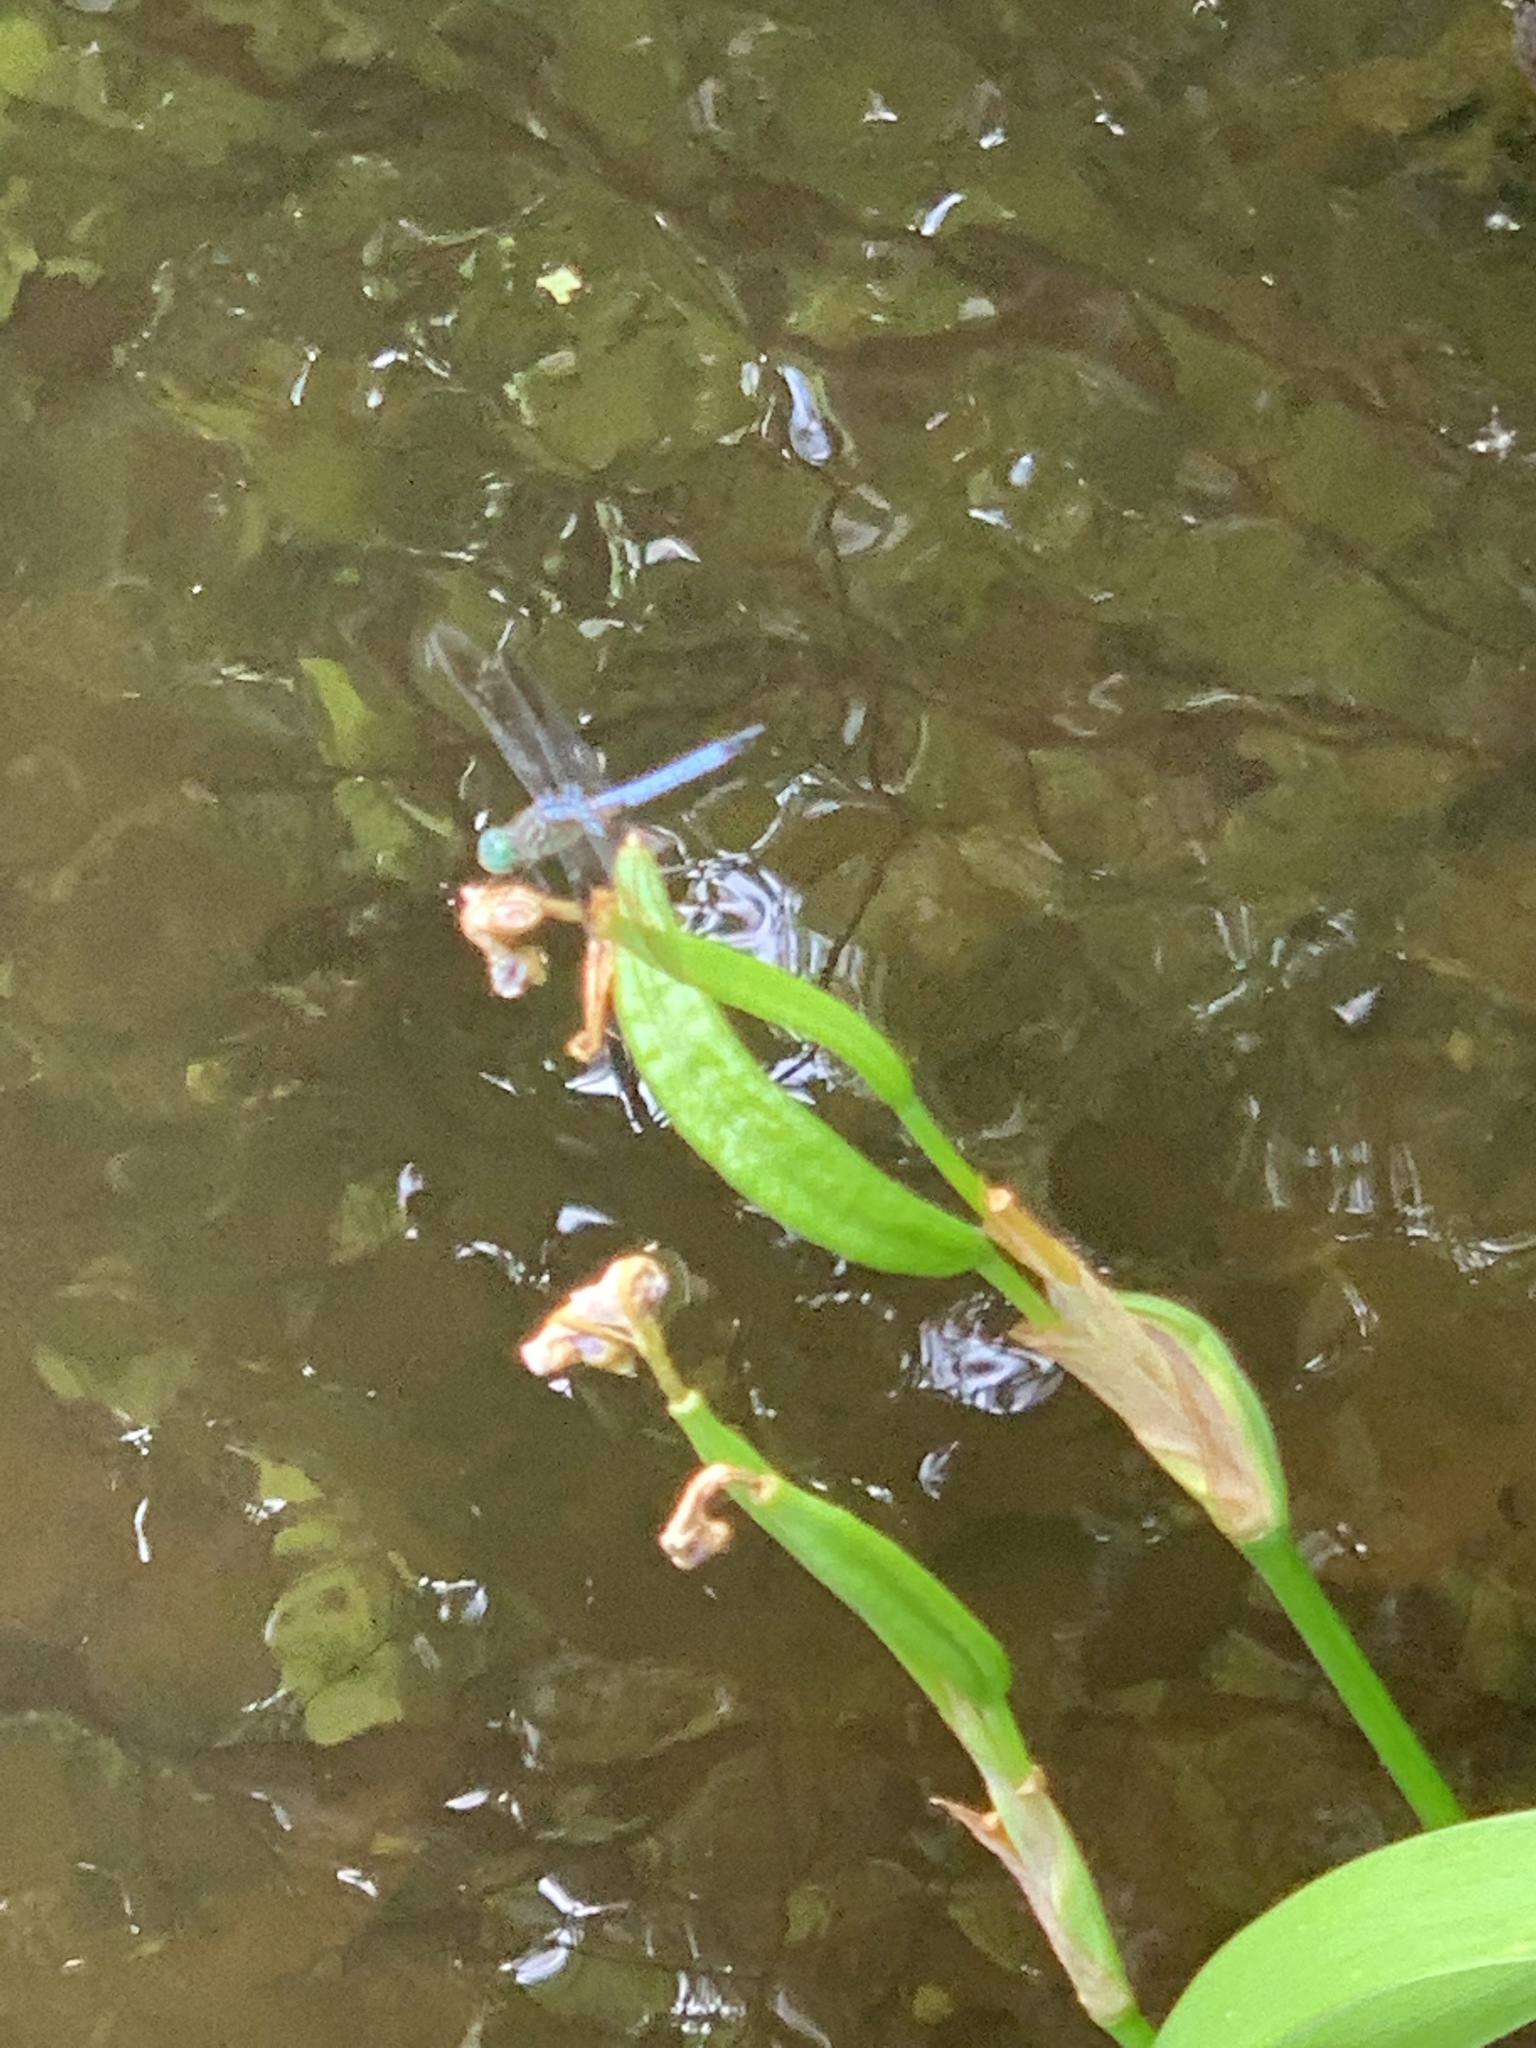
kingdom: Animalia
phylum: Arthropoda
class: Insecta
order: Odonata
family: Libellulidae
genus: Pachydiplax
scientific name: Pachydiplax longipennis
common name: Blue dasher
